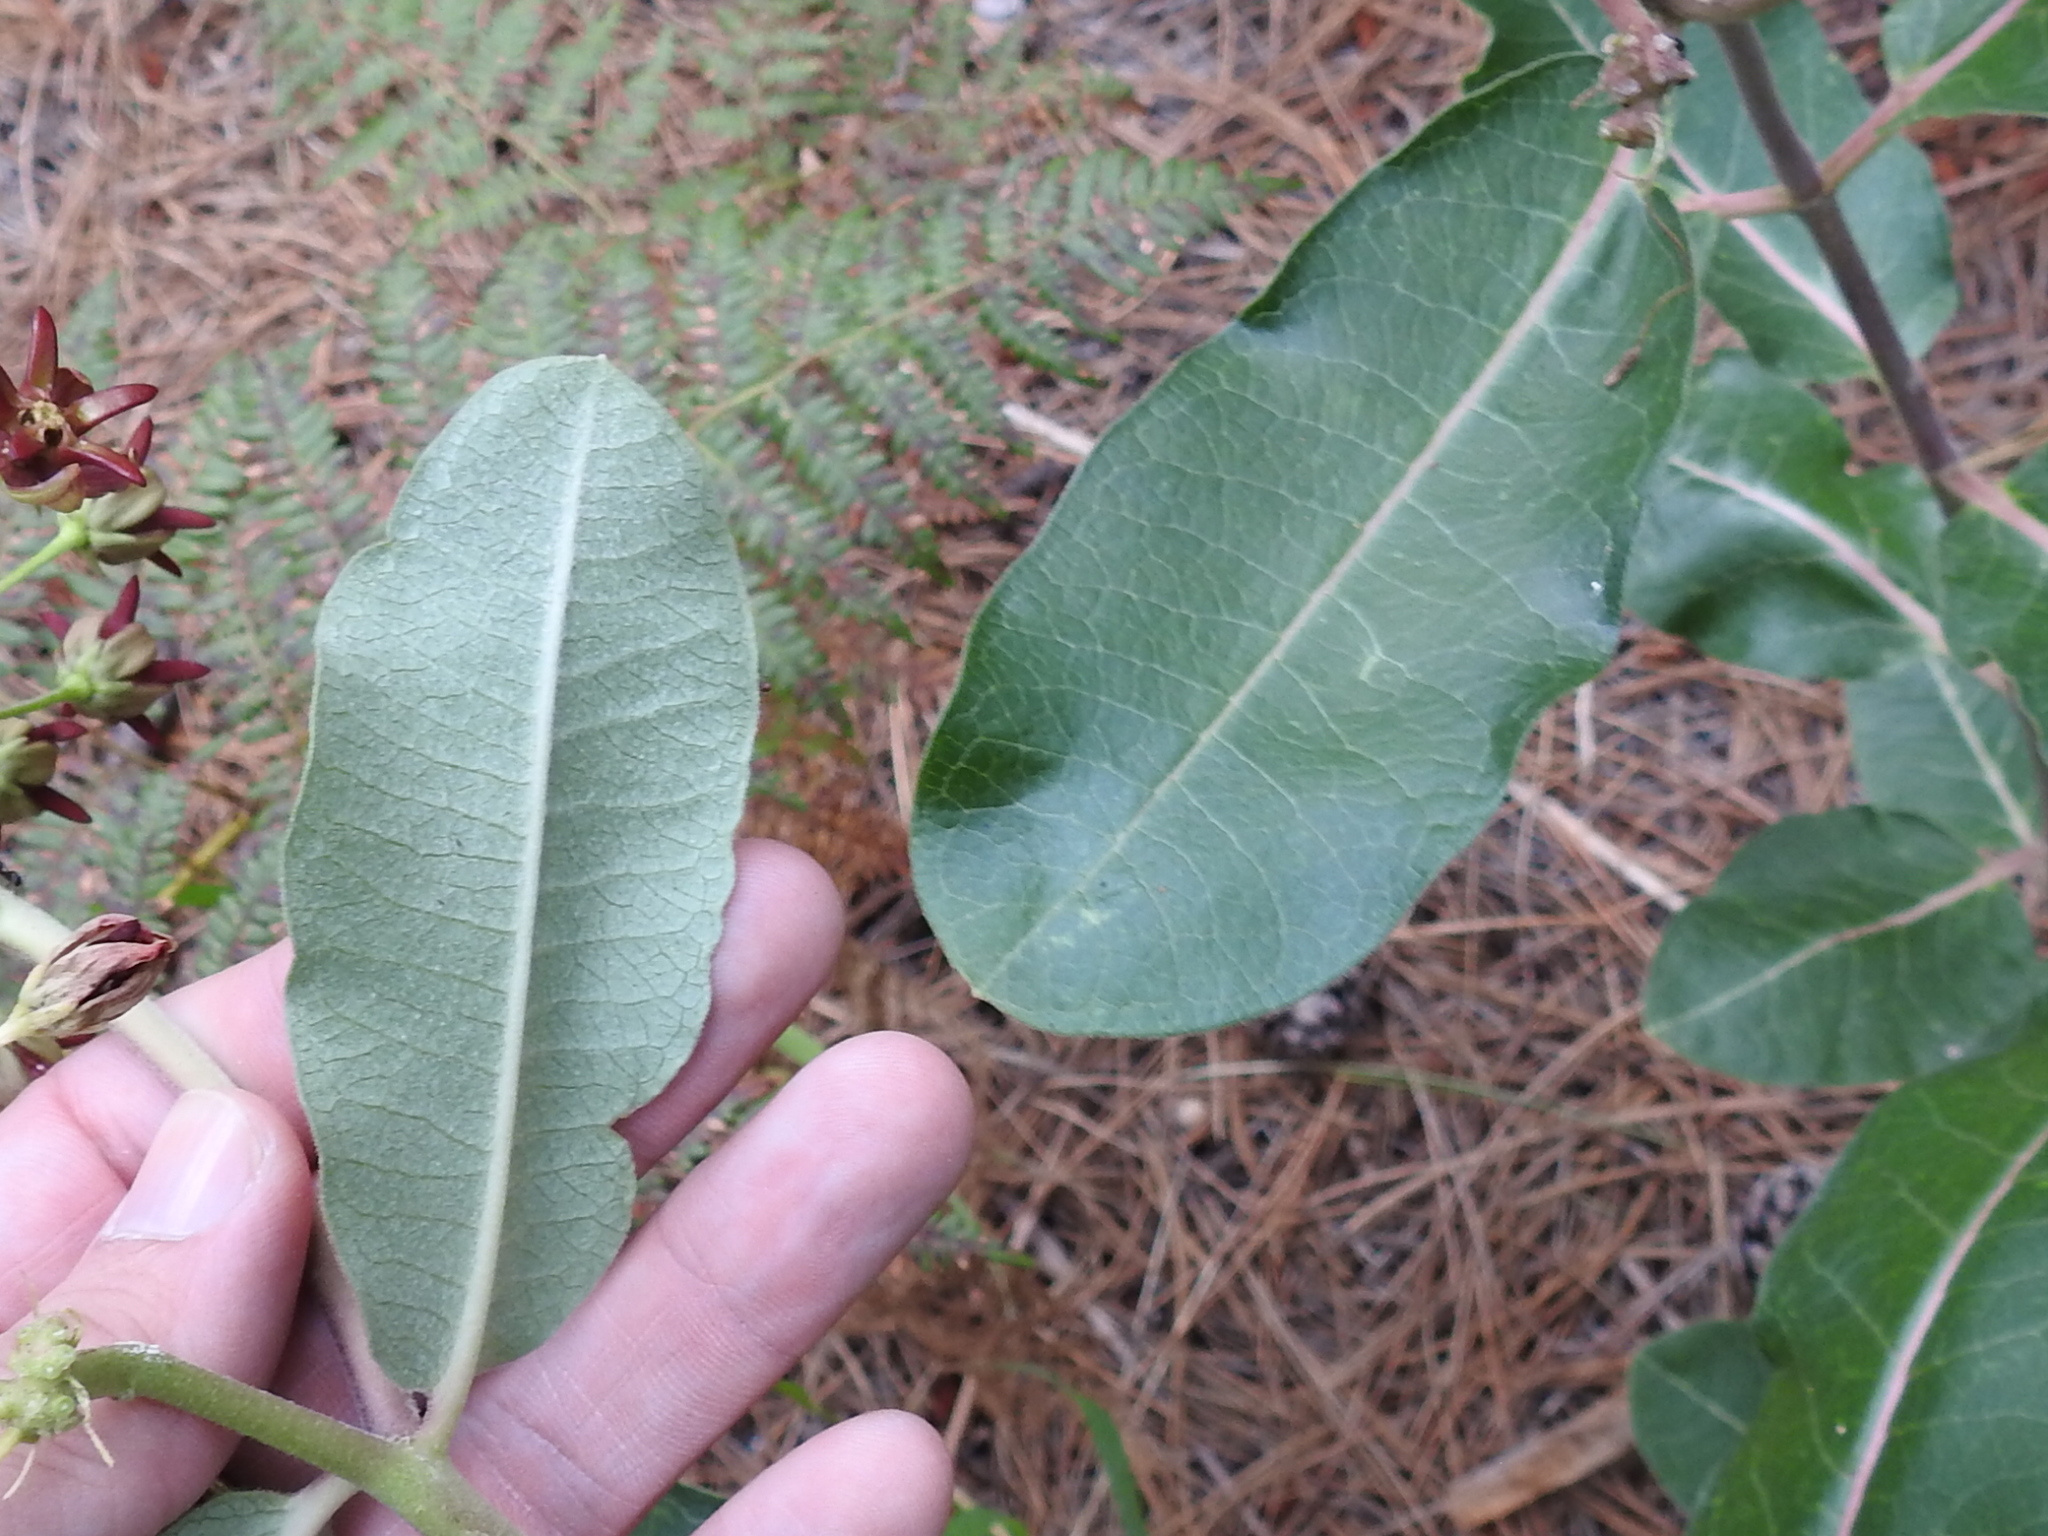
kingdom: Plantae
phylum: Tracheophyta
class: Magnoliopsida
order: Gentianales
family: Apocynaceae
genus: Asclepias
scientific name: Asclepias hypoleuca
